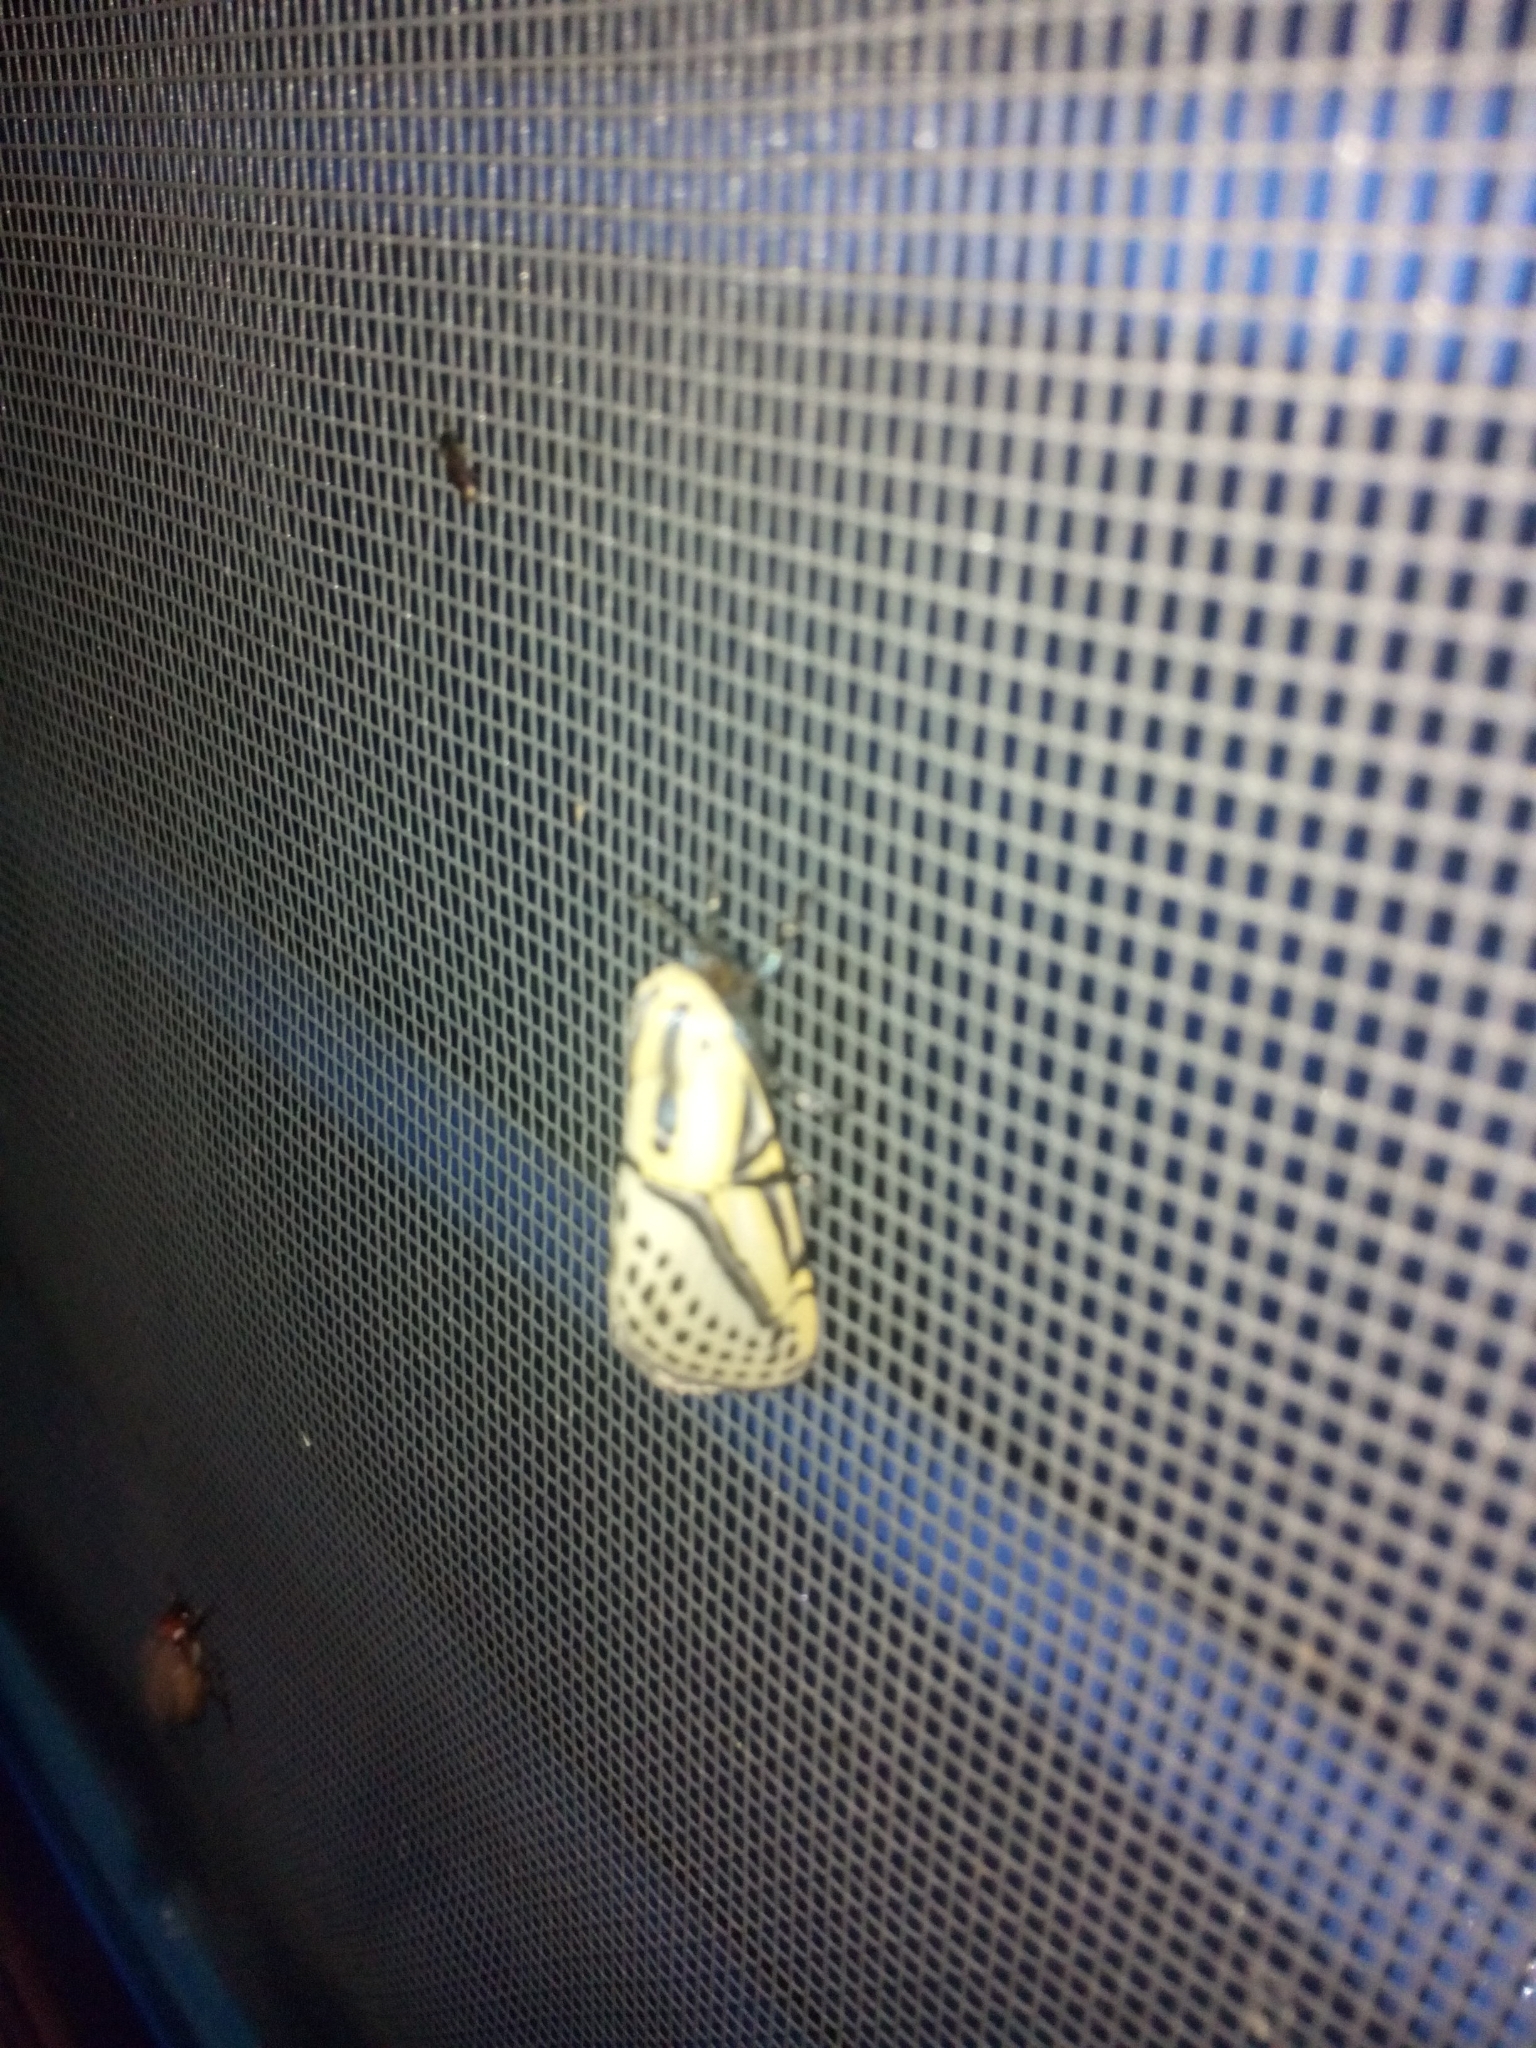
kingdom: Animalia
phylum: Arthropoda
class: Insecta
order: Lepidoptera
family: Erebidae
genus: Diphthera
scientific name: Diphthera festiva
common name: Hieroglyphic moth
